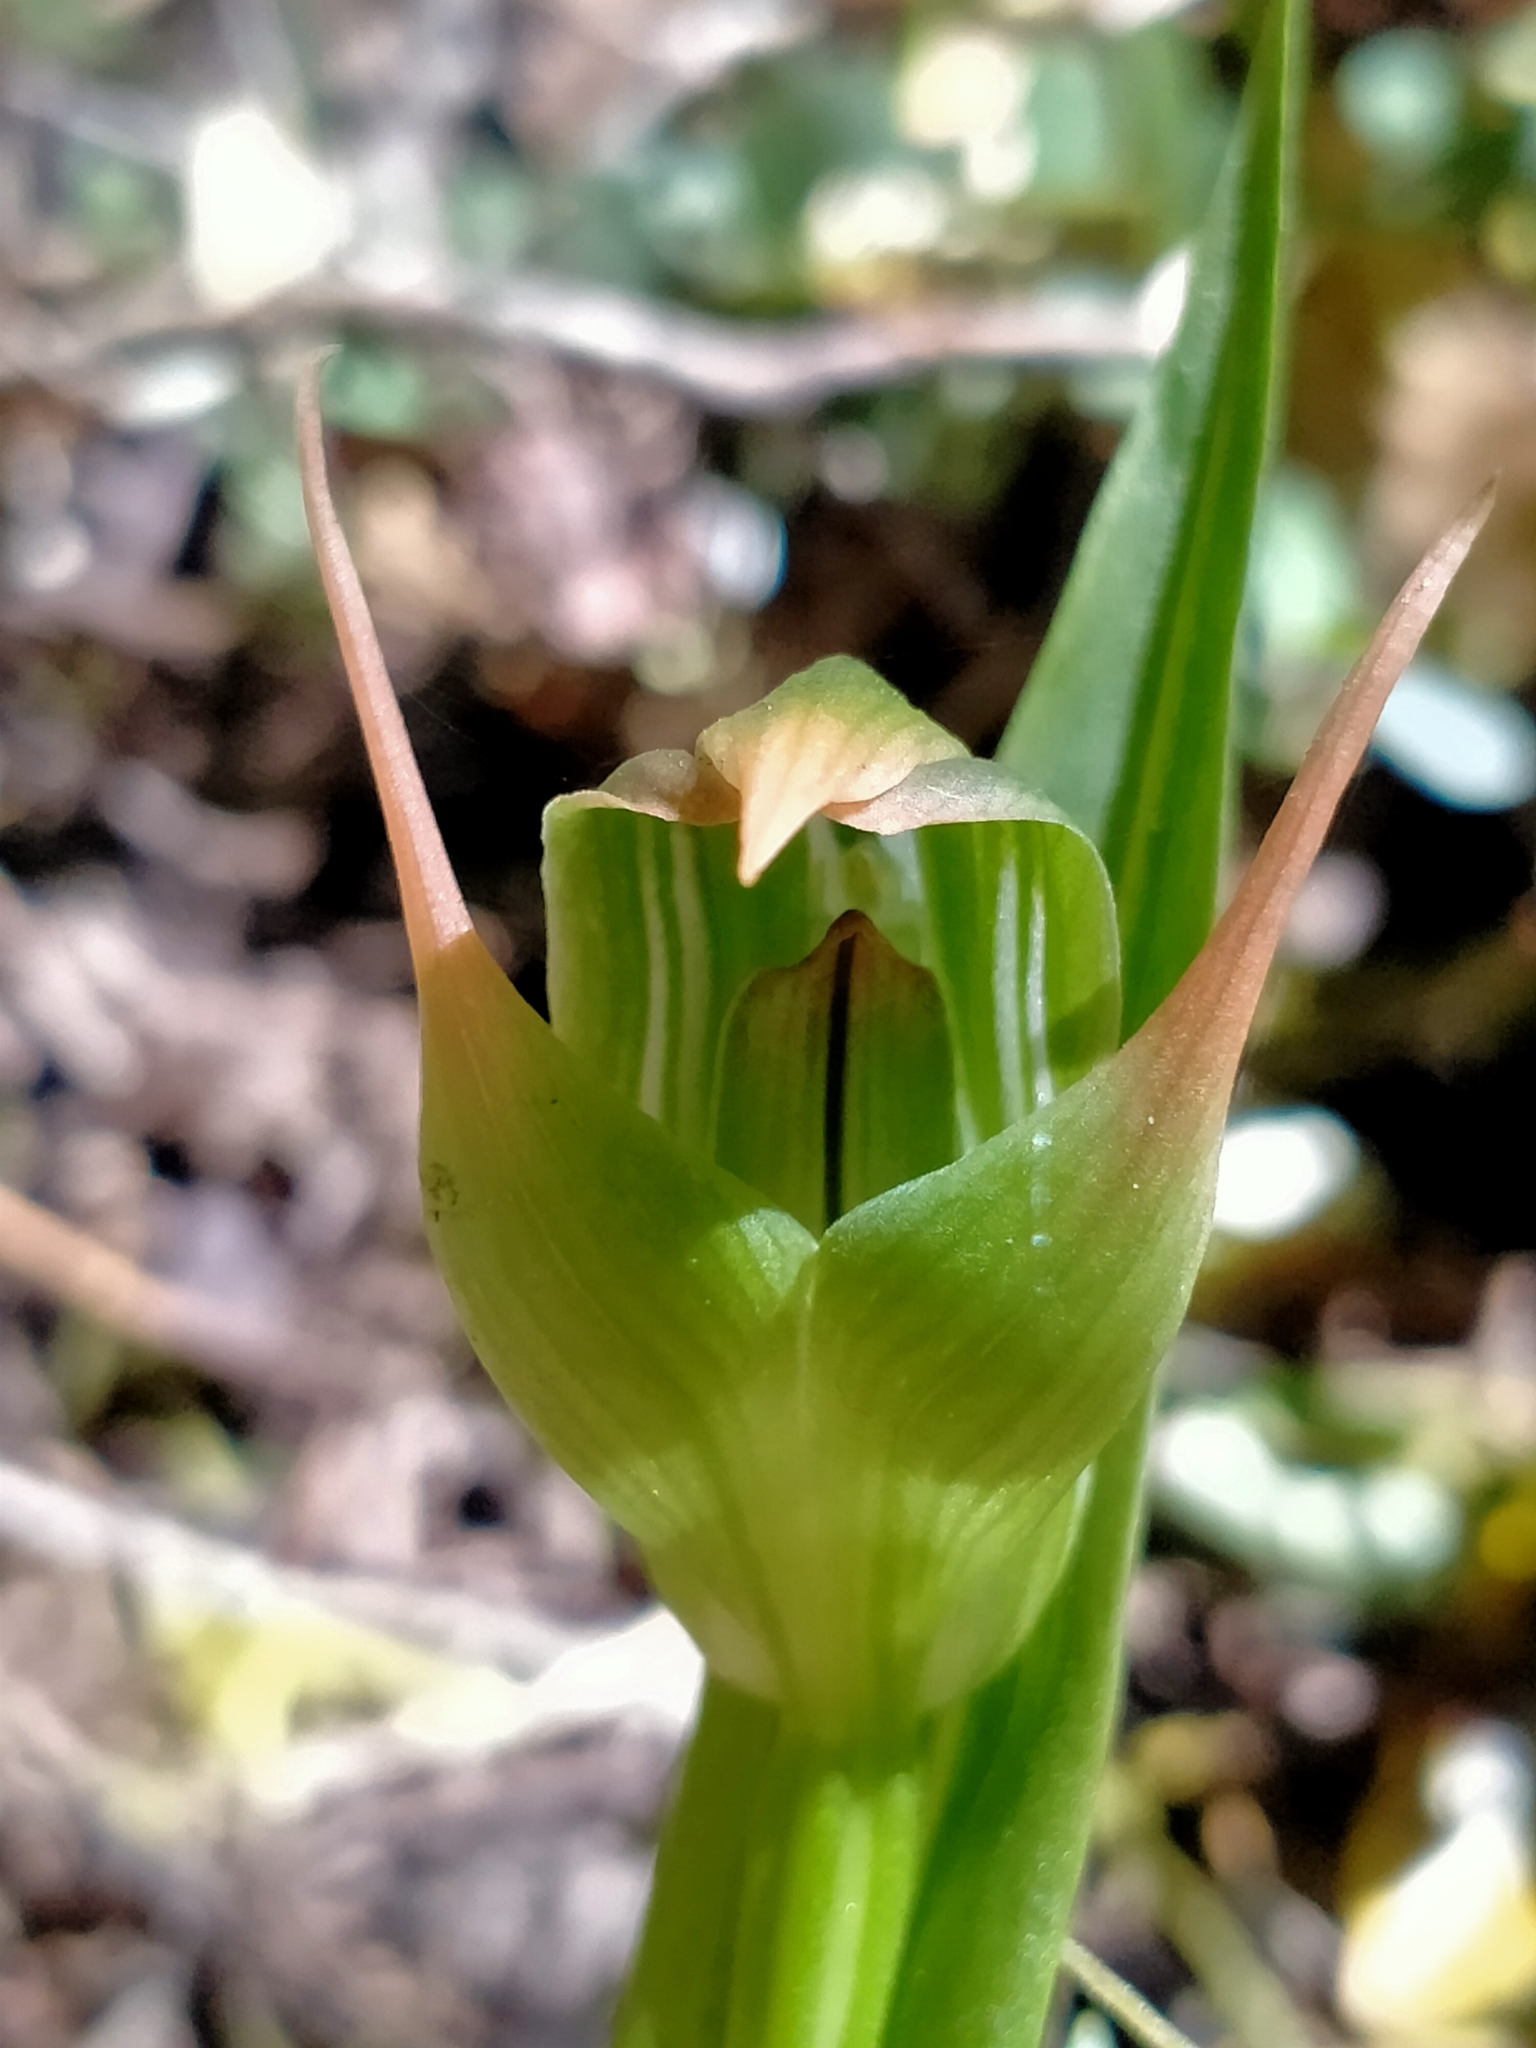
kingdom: Plantae
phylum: Tracheophyta
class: Liliopsida
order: Asparagales
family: Orchidaceae
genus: Pterostylis
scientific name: Pterostylis montana
